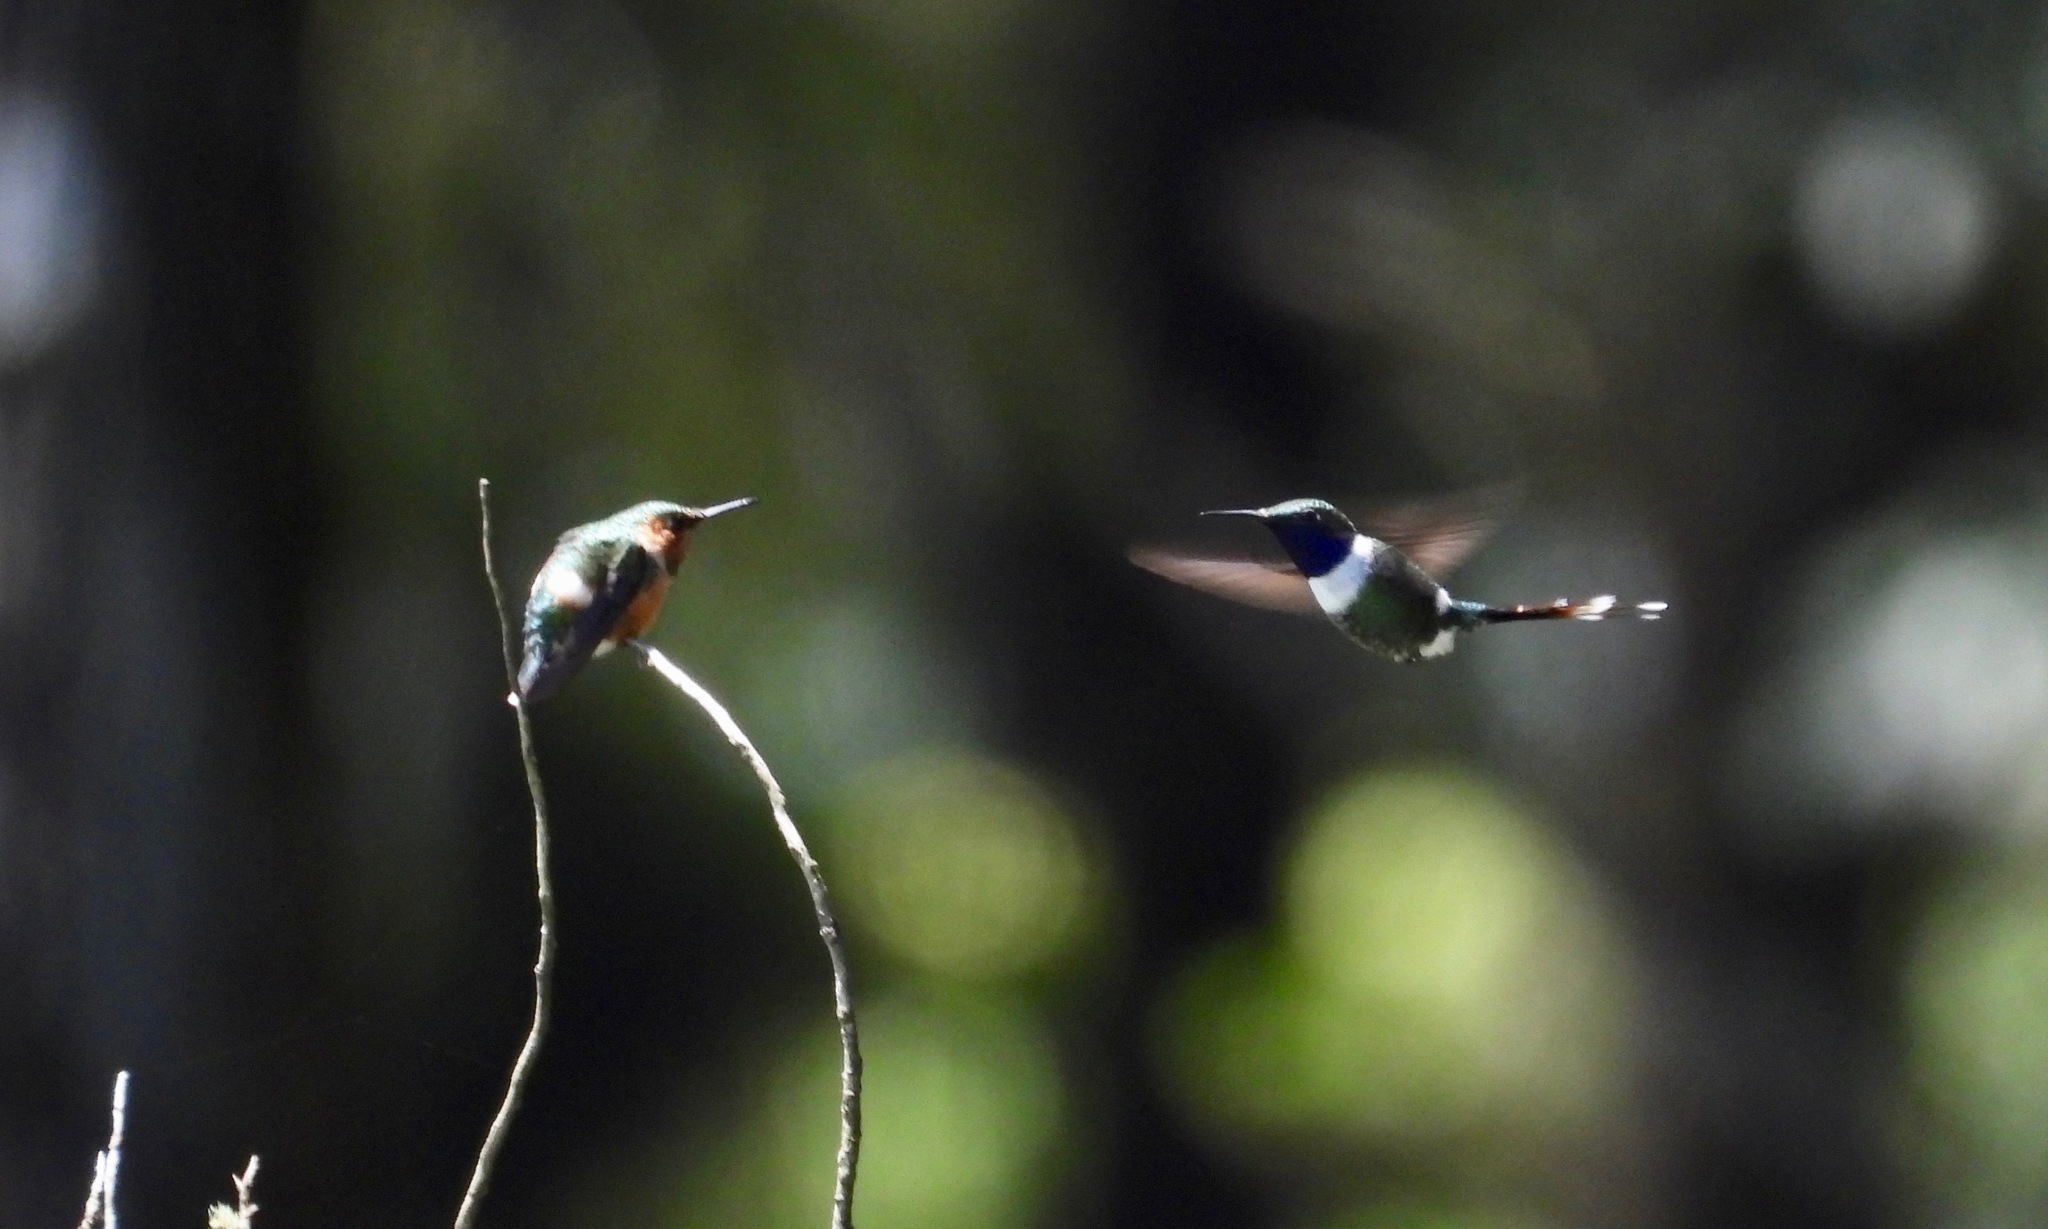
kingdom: Animalia
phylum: Chordata
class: Aves
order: Apodiformes
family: Trochilidae
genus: Tilmatura
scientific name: Tilmatura dupontii
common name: Sparkling-tailed woodstar
